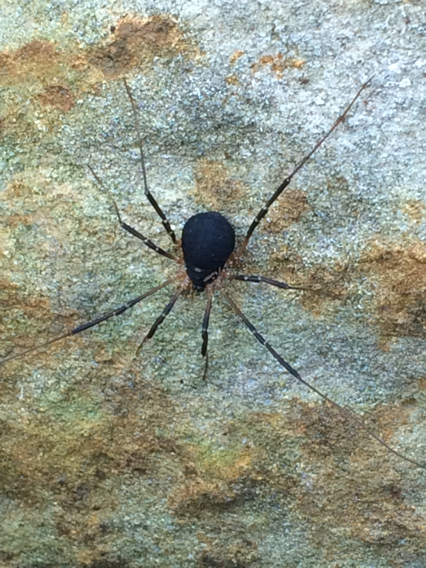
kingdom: Animalia
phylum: Arthropoda
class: Arachnida
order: Opiliones
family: Sclerosomatidae
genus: Eumesosoma
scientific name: Eumesosoma roeweri
